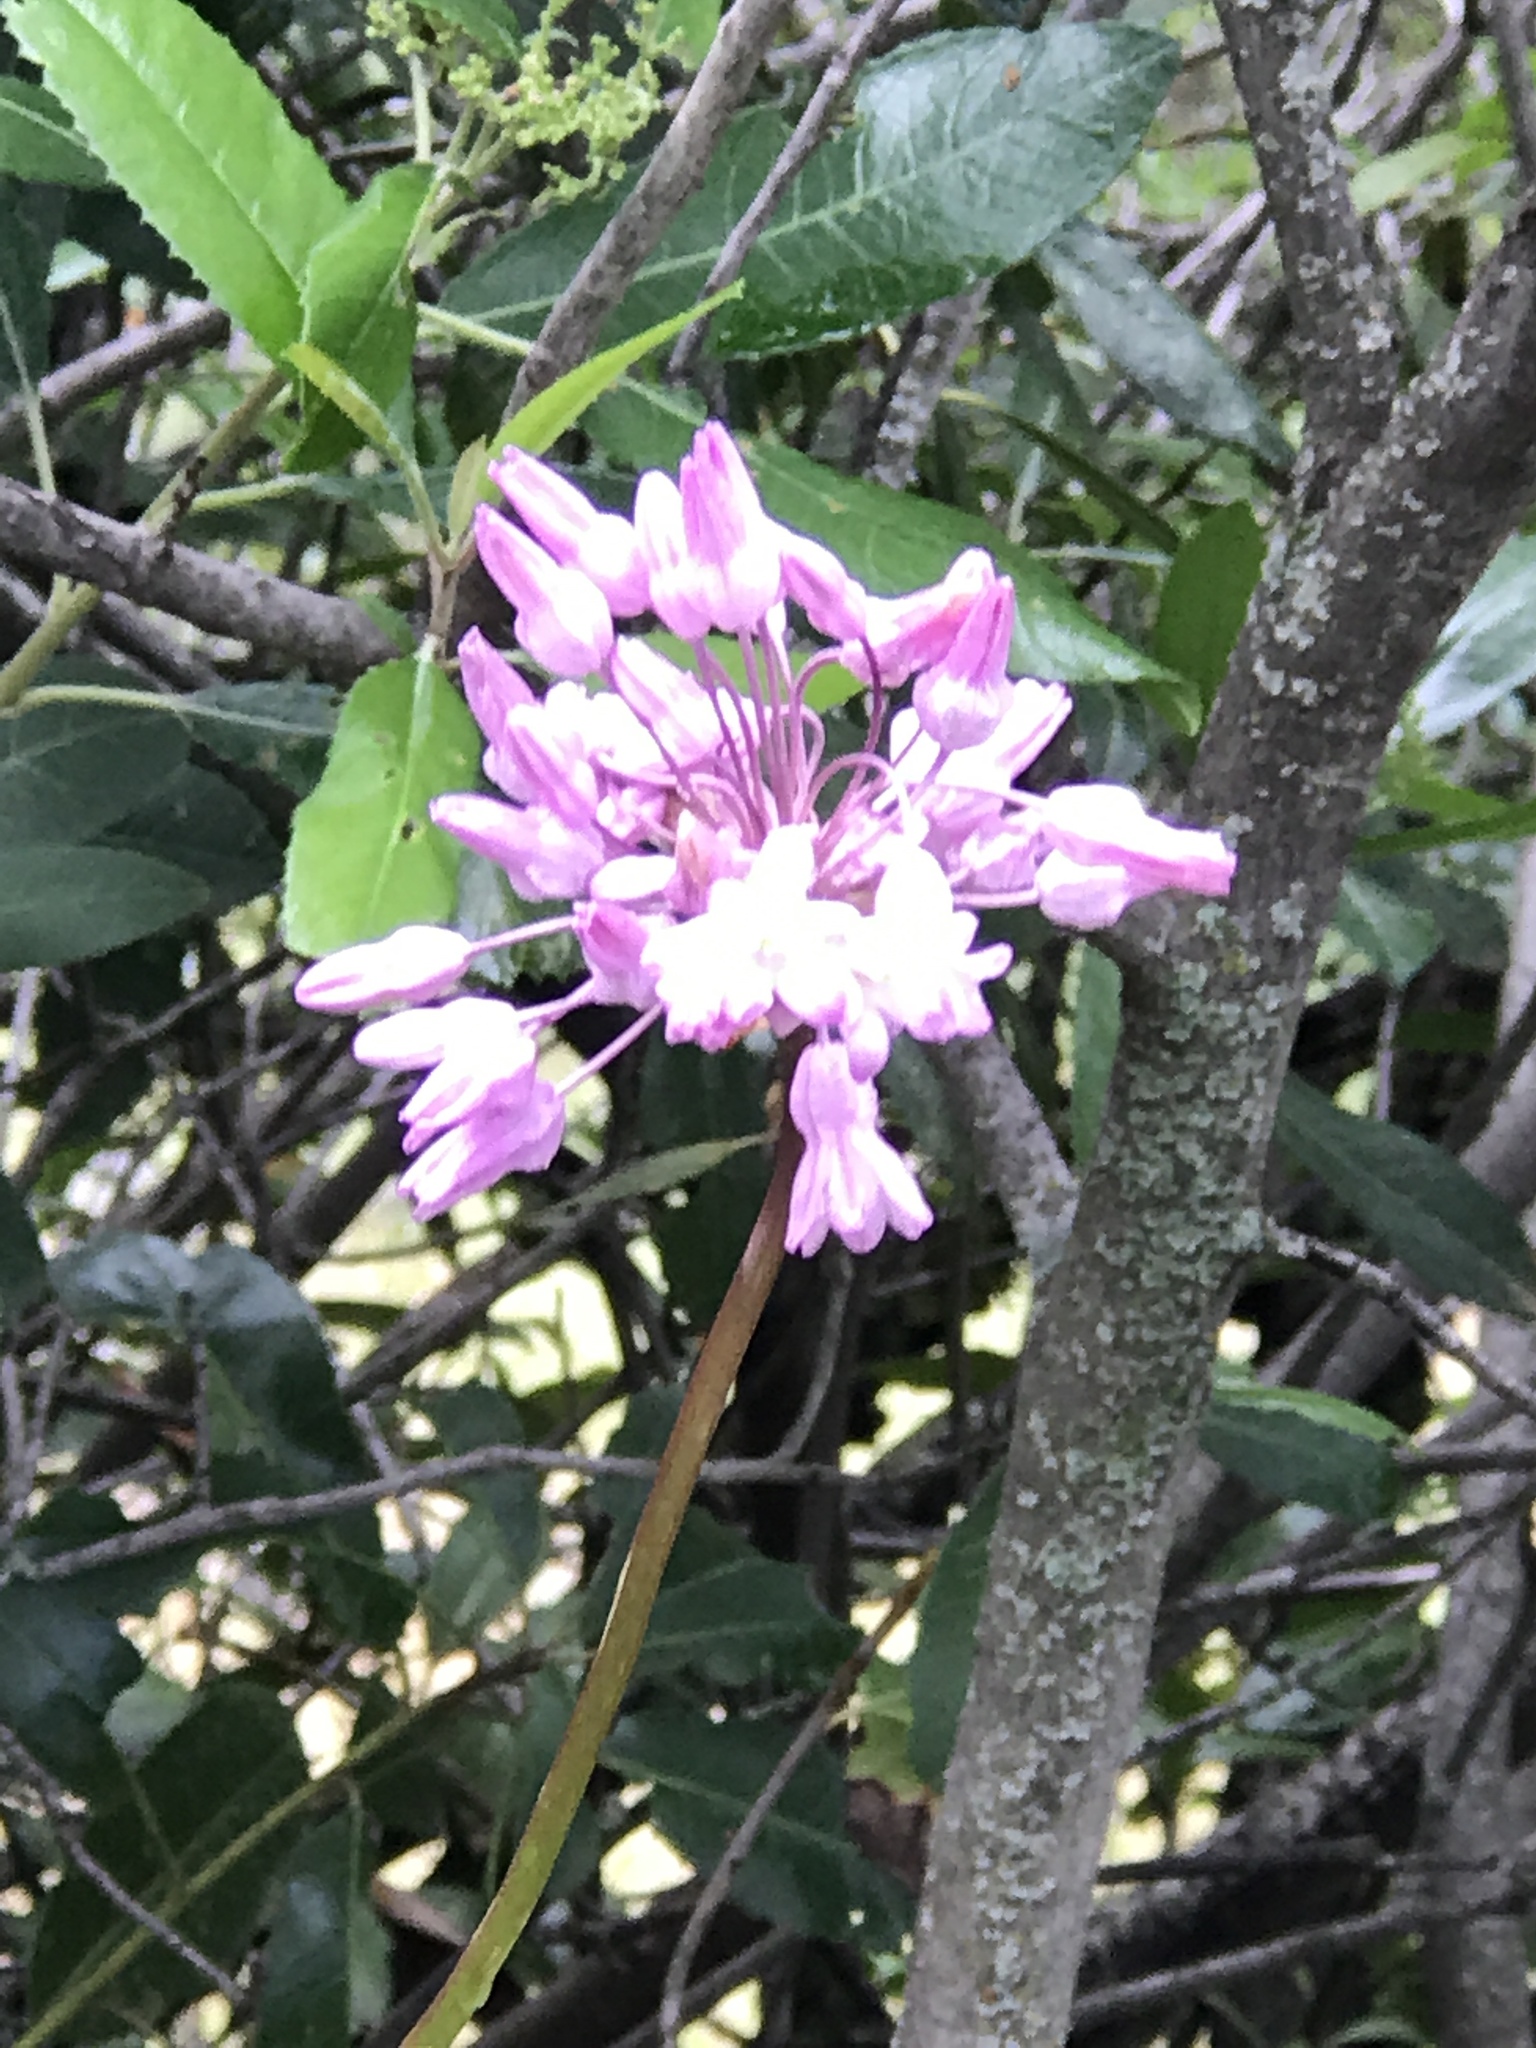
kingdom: Plantae
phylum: Tracheophyta
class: Liliopsida
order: Asparagales
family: Asparagaceae
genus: Dichelostemma
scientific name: Dichelostemma volubile
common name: Trining brodiaea
